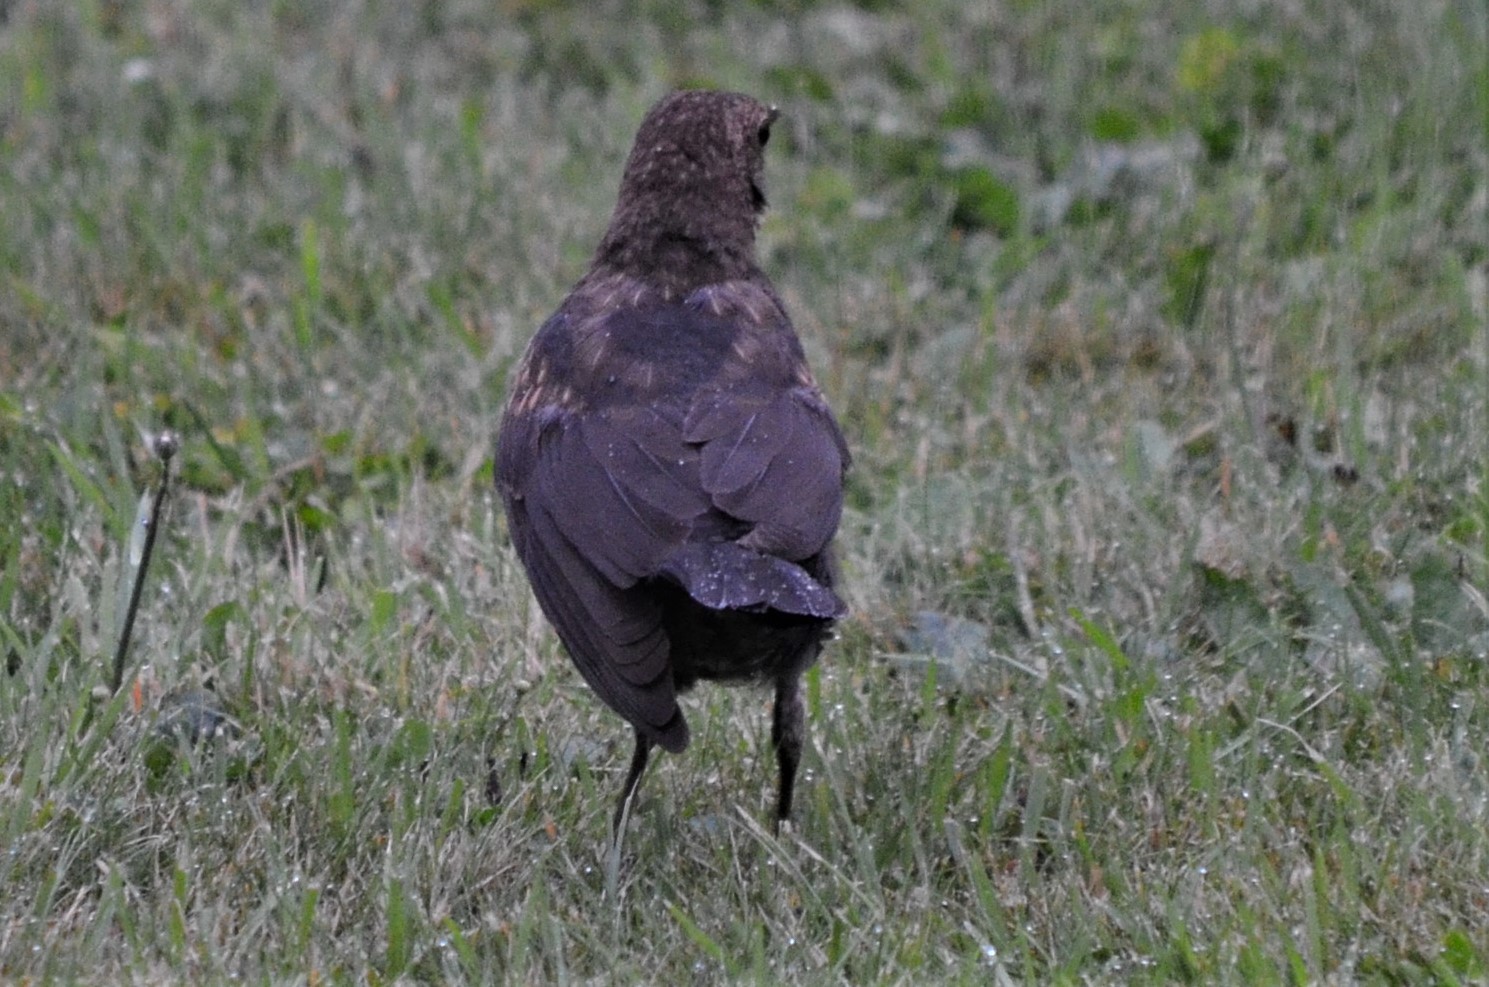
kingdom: Animalia
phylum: Chordata
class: Aves
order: Passeriformes
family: Turdidae
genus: Turdus
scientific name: Turdus merula
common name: Common blackbird
